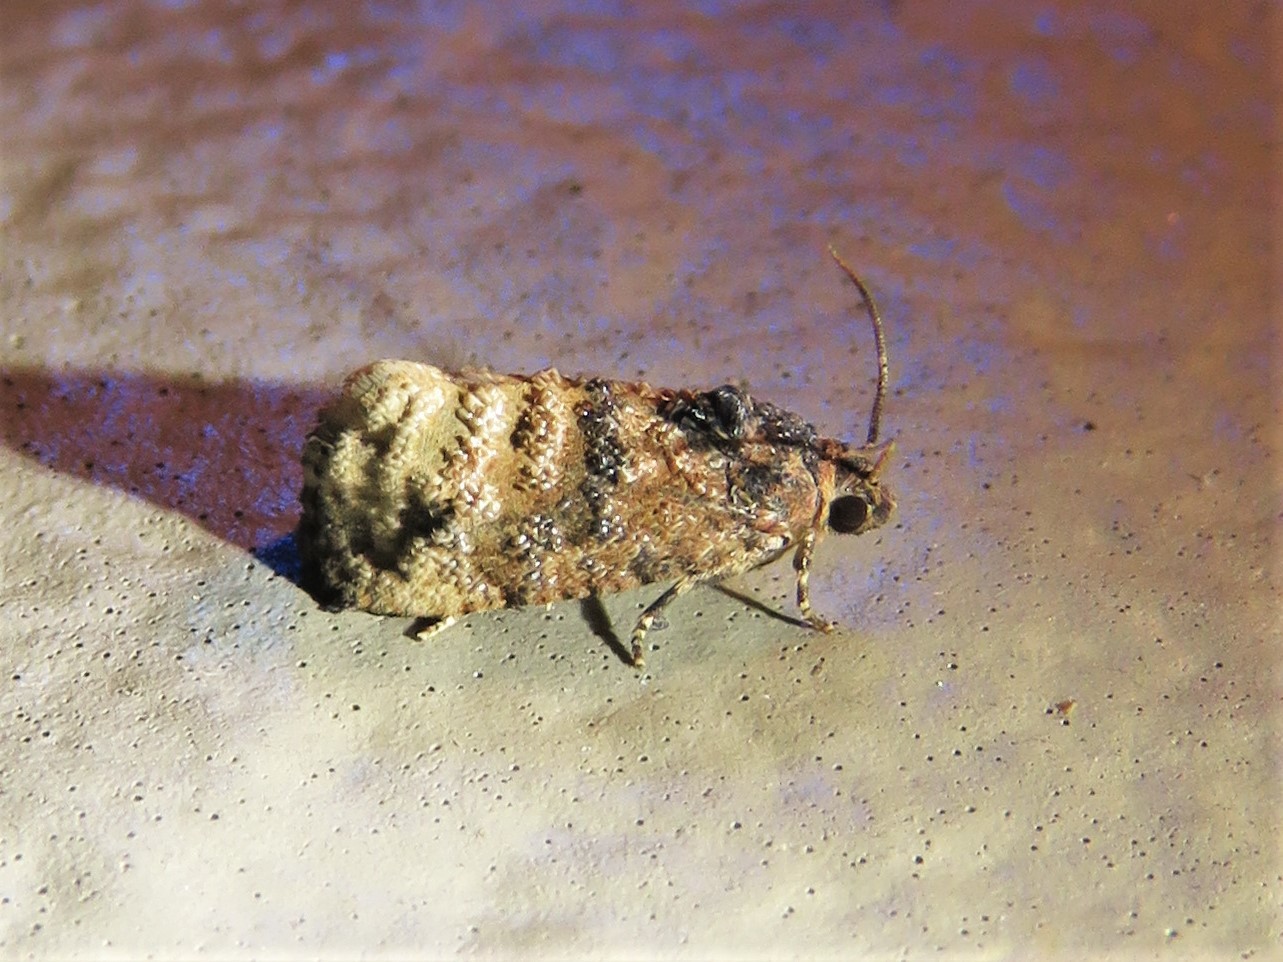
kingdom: Animalia
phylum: Arthropoda
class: Insecta
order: Lepidoptera
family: Tortricidae
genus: Ecdytolopha
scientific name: Ecdytolopha mana
